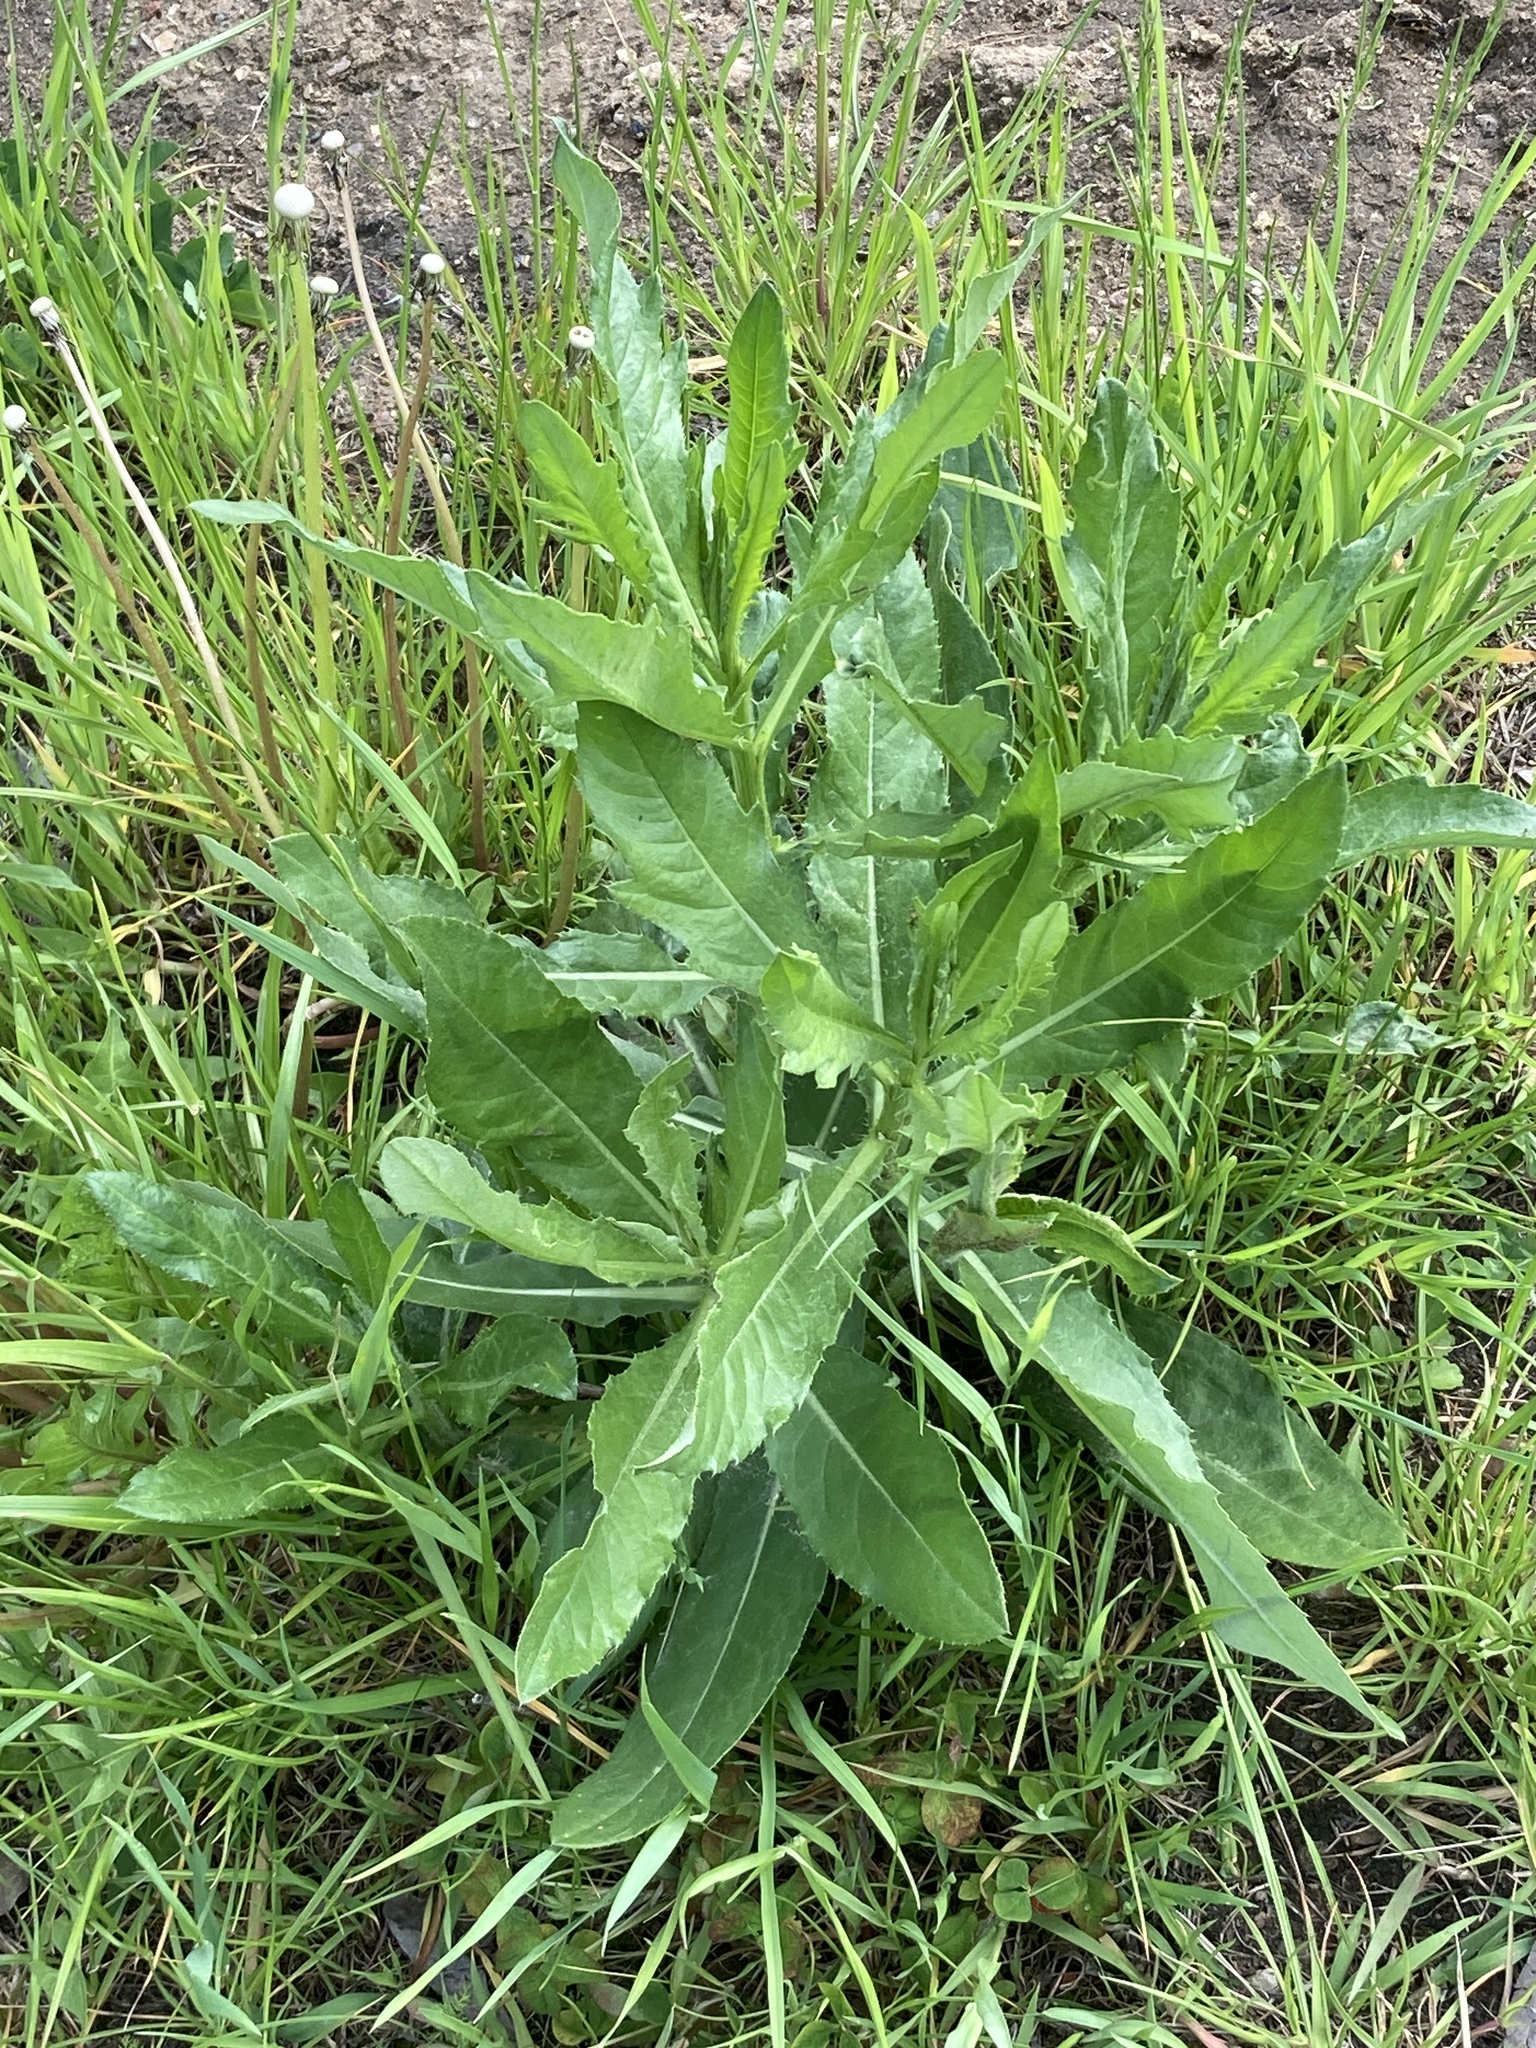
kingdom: Plantae
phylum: Tracheophyta
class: Magnoliopsida
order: Asterales
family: Asteraceae
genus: Cirsium
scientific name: Cirsium arvense
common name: Creeping thistle
